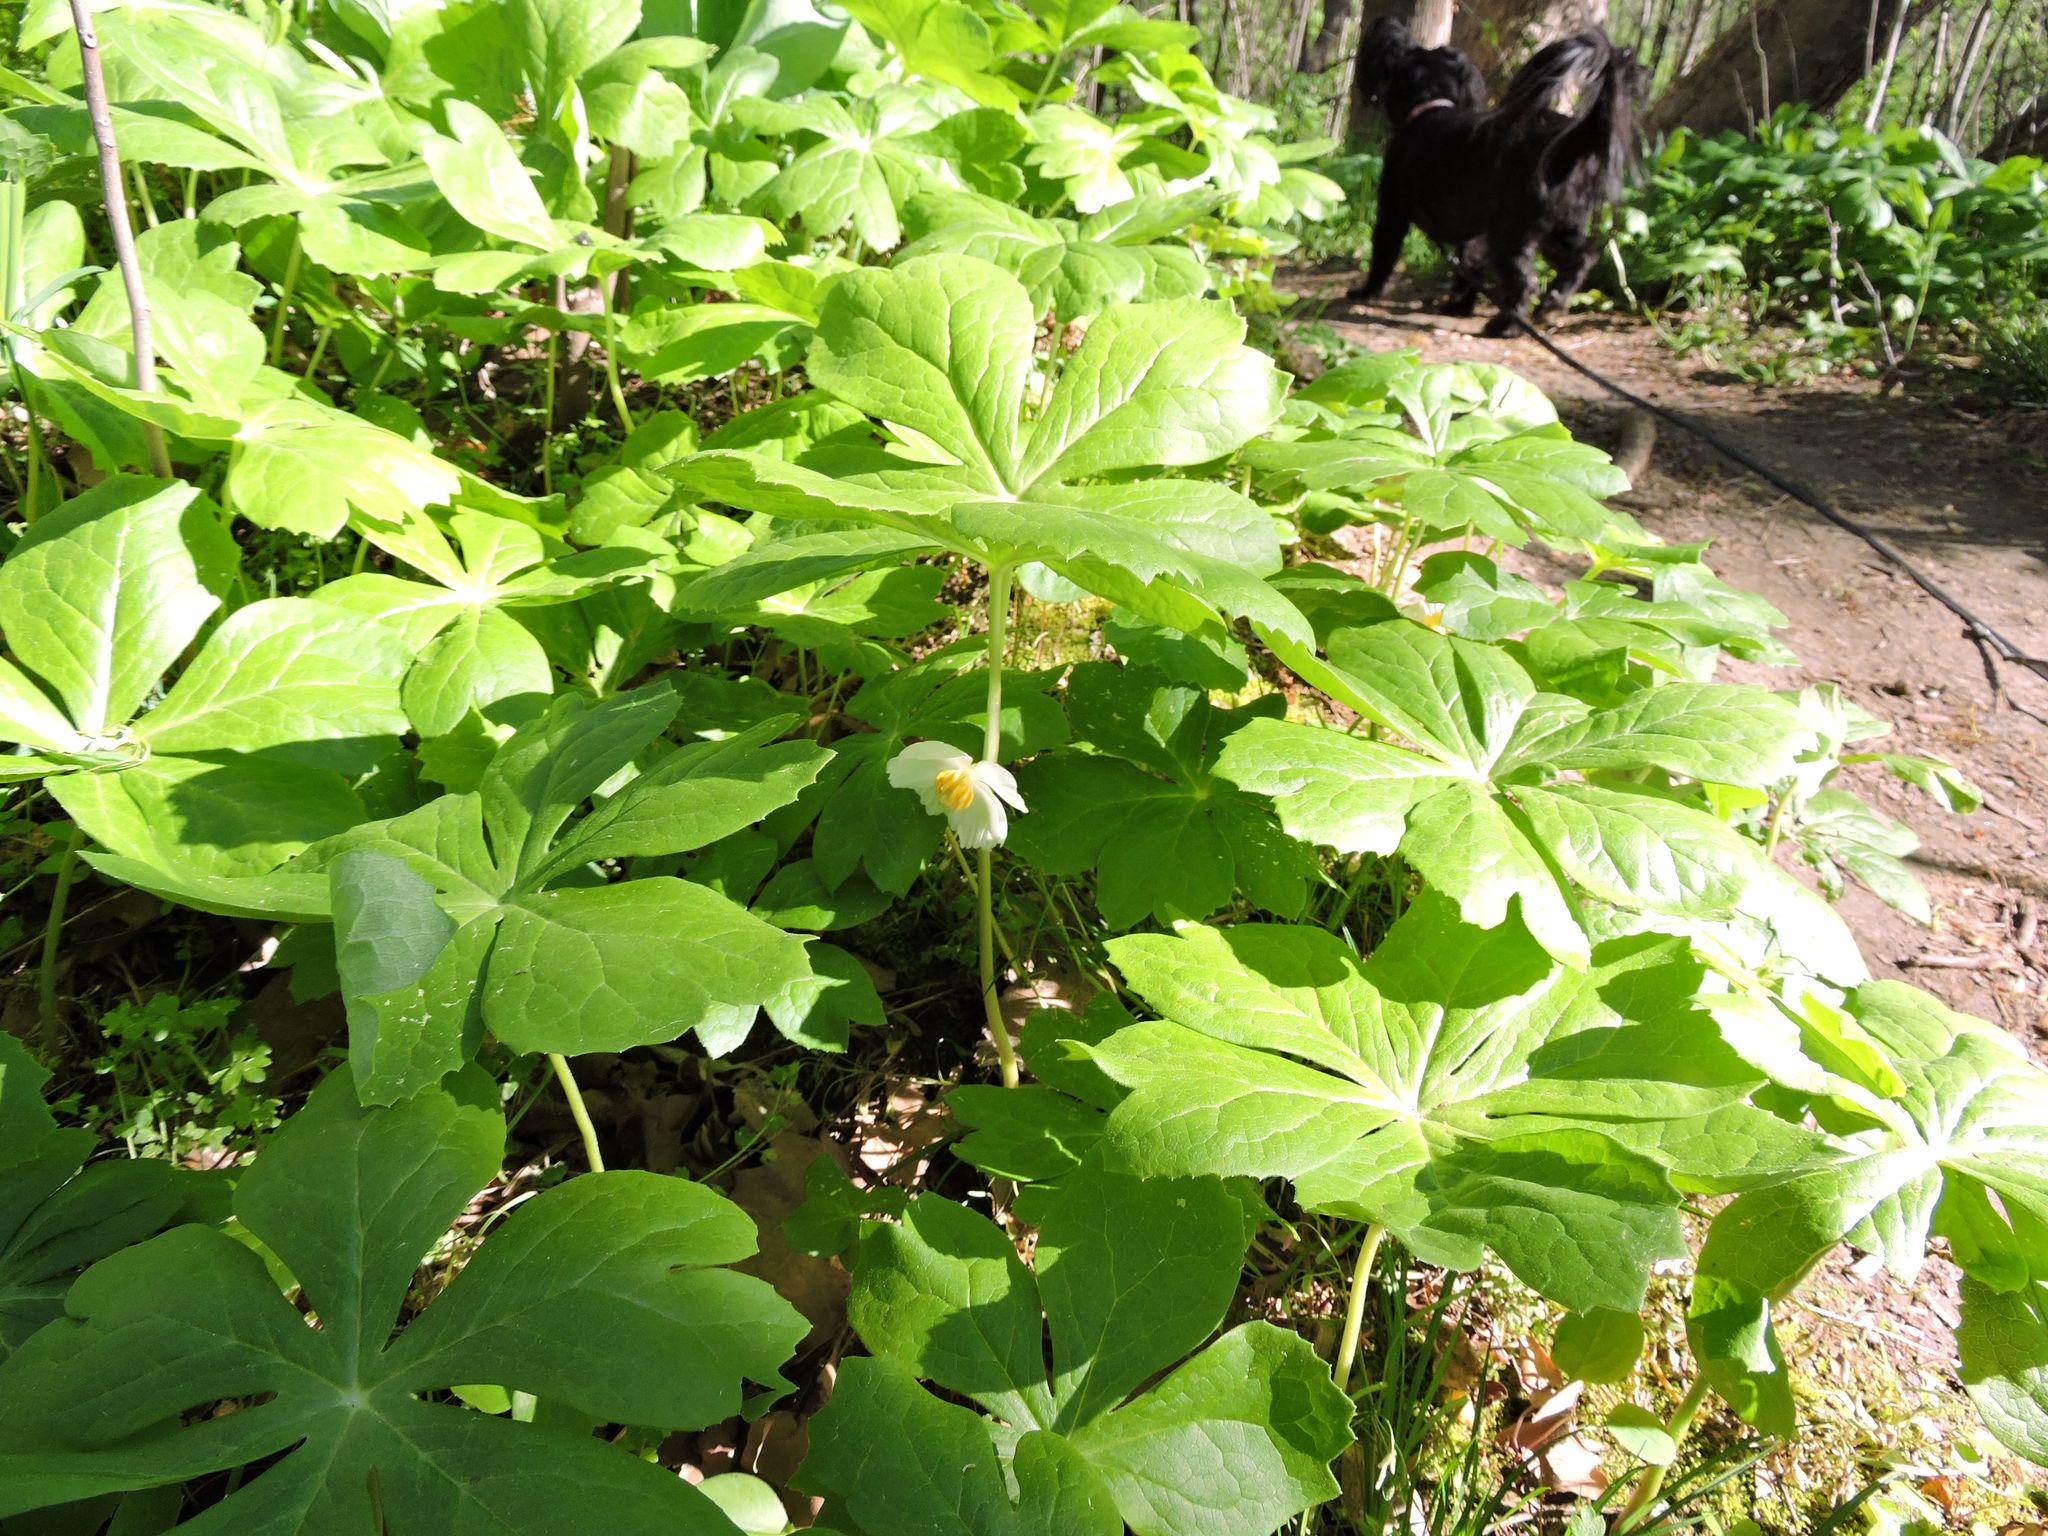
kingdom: Plantae
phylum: Tracheophyta
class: Magnoliopsida
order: Ranunculales
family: Berberidaceae
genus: Podophyllum
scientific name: Podophyllum peltatum
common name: Wild mandrake
